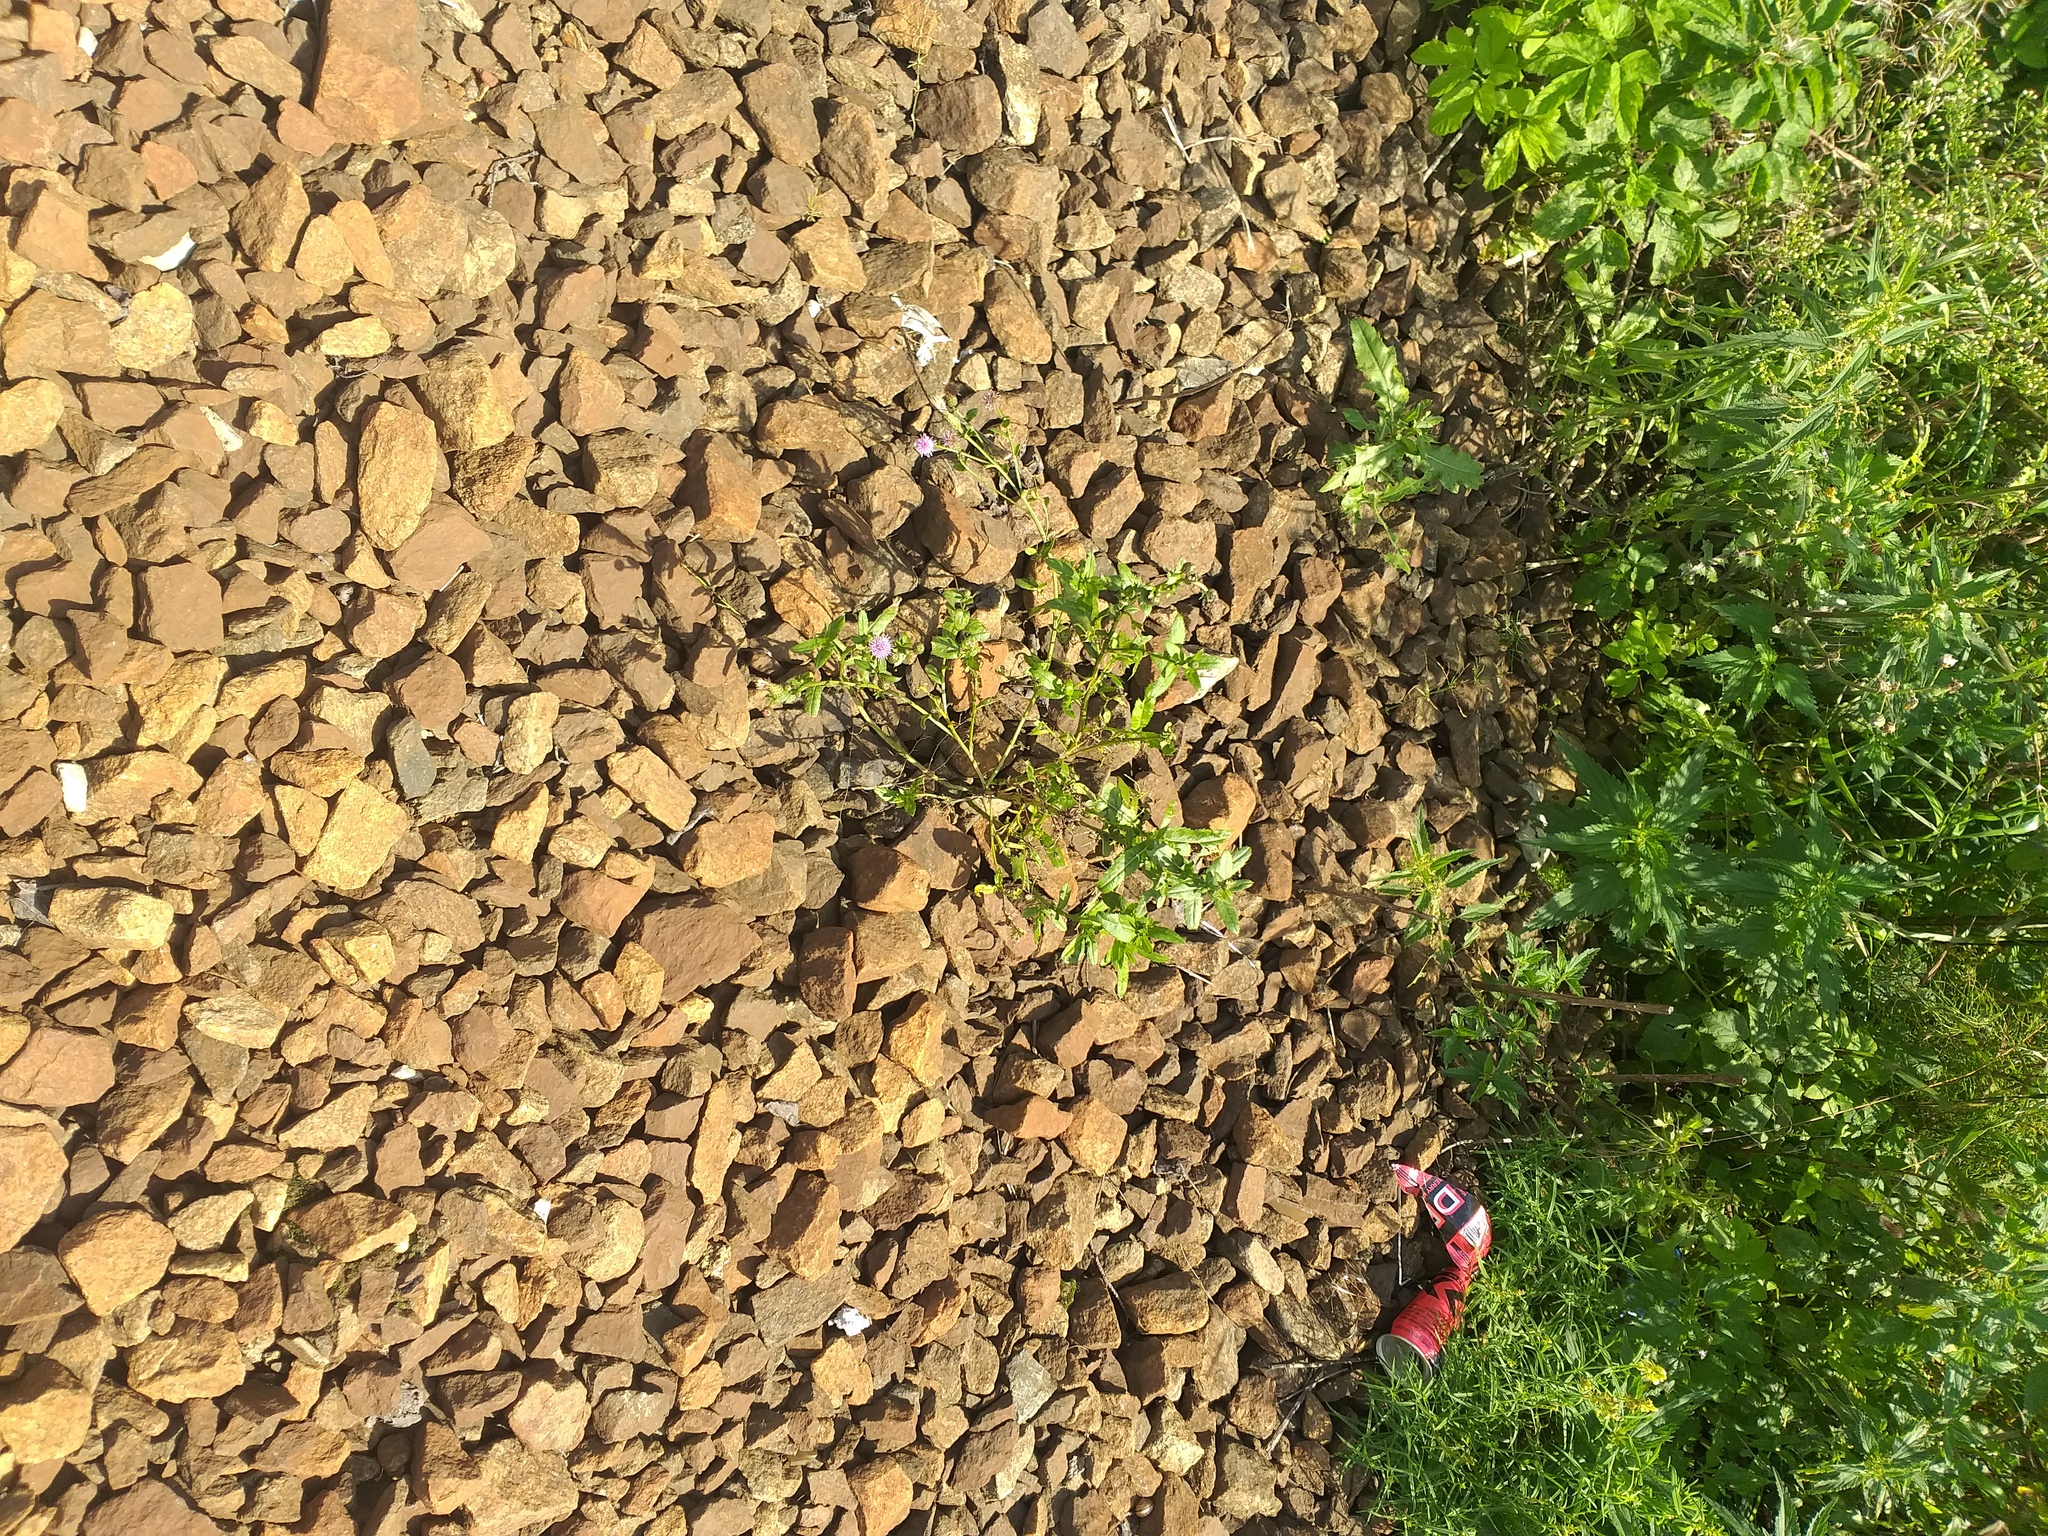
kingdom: Plantae
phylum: Tracheophyta
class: Magnoliopsida
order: Asterales
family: Asteraceae
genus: Cirsium
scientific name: Cirsium arvense
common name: Creeping thistle
